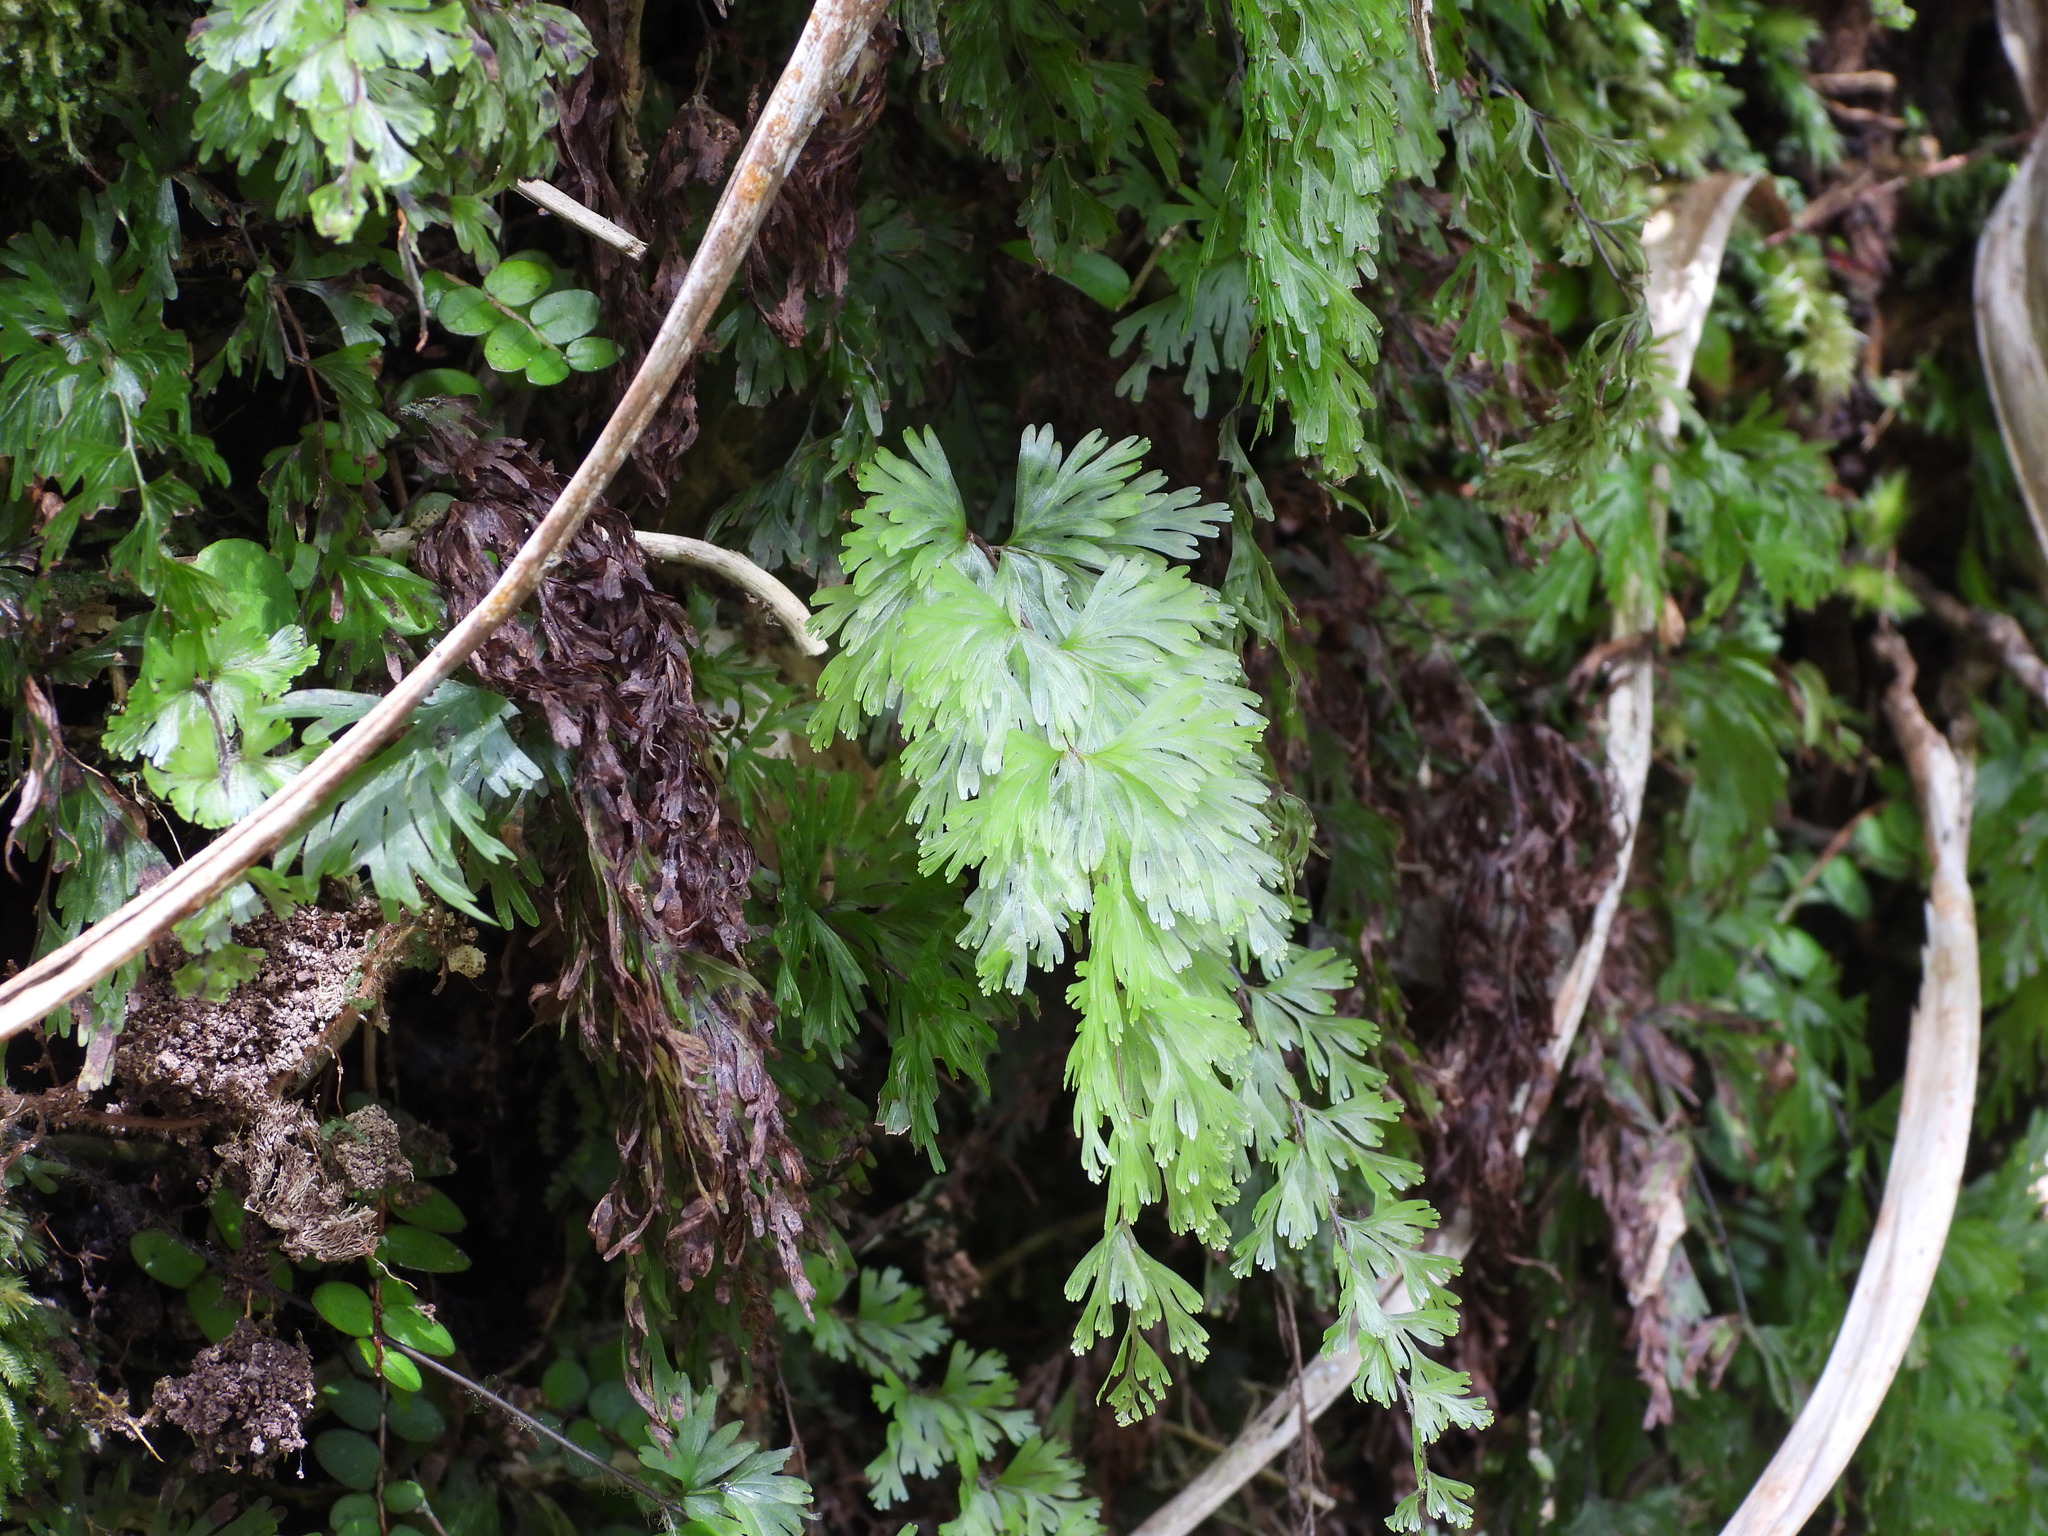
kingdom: Plantae
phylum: Tracheophyta
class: Polypodiopsida
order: Hymenophyllales
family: Hymenophyllaceae
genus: Hymenophyllum
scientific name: Hymenophyllum flabellatum
